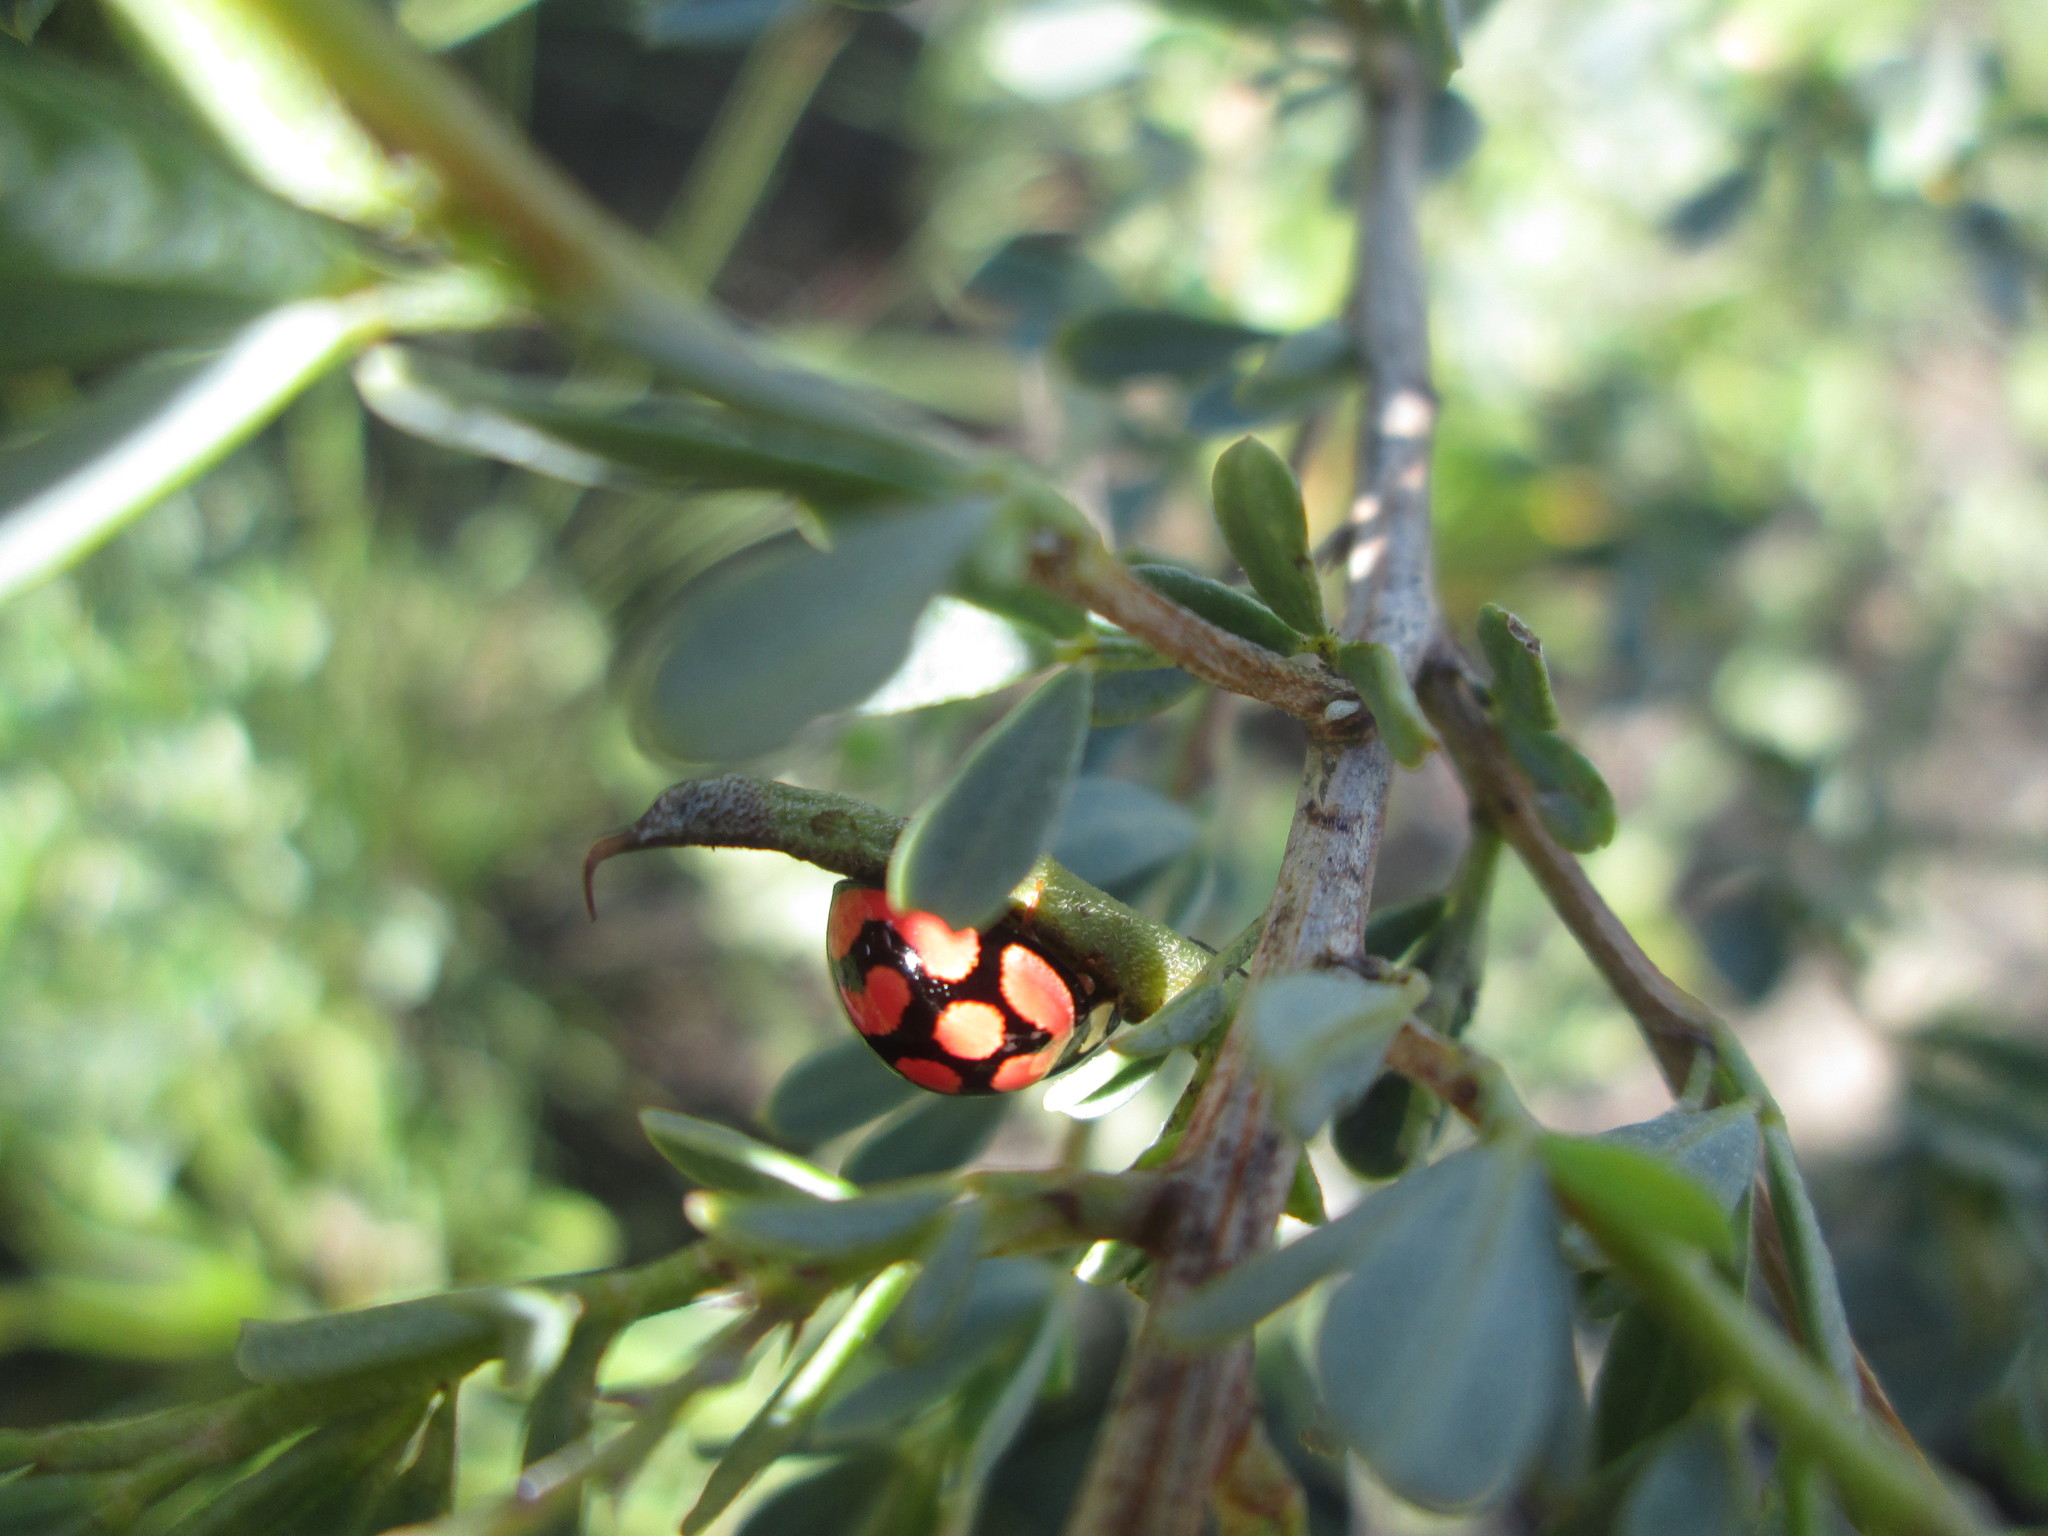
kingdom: Animalia
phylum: Arthropoda
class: Insecta
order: Coleoptera
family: Coccinellidae
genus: Cheilomenes
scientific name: Cheilomenes lunata
